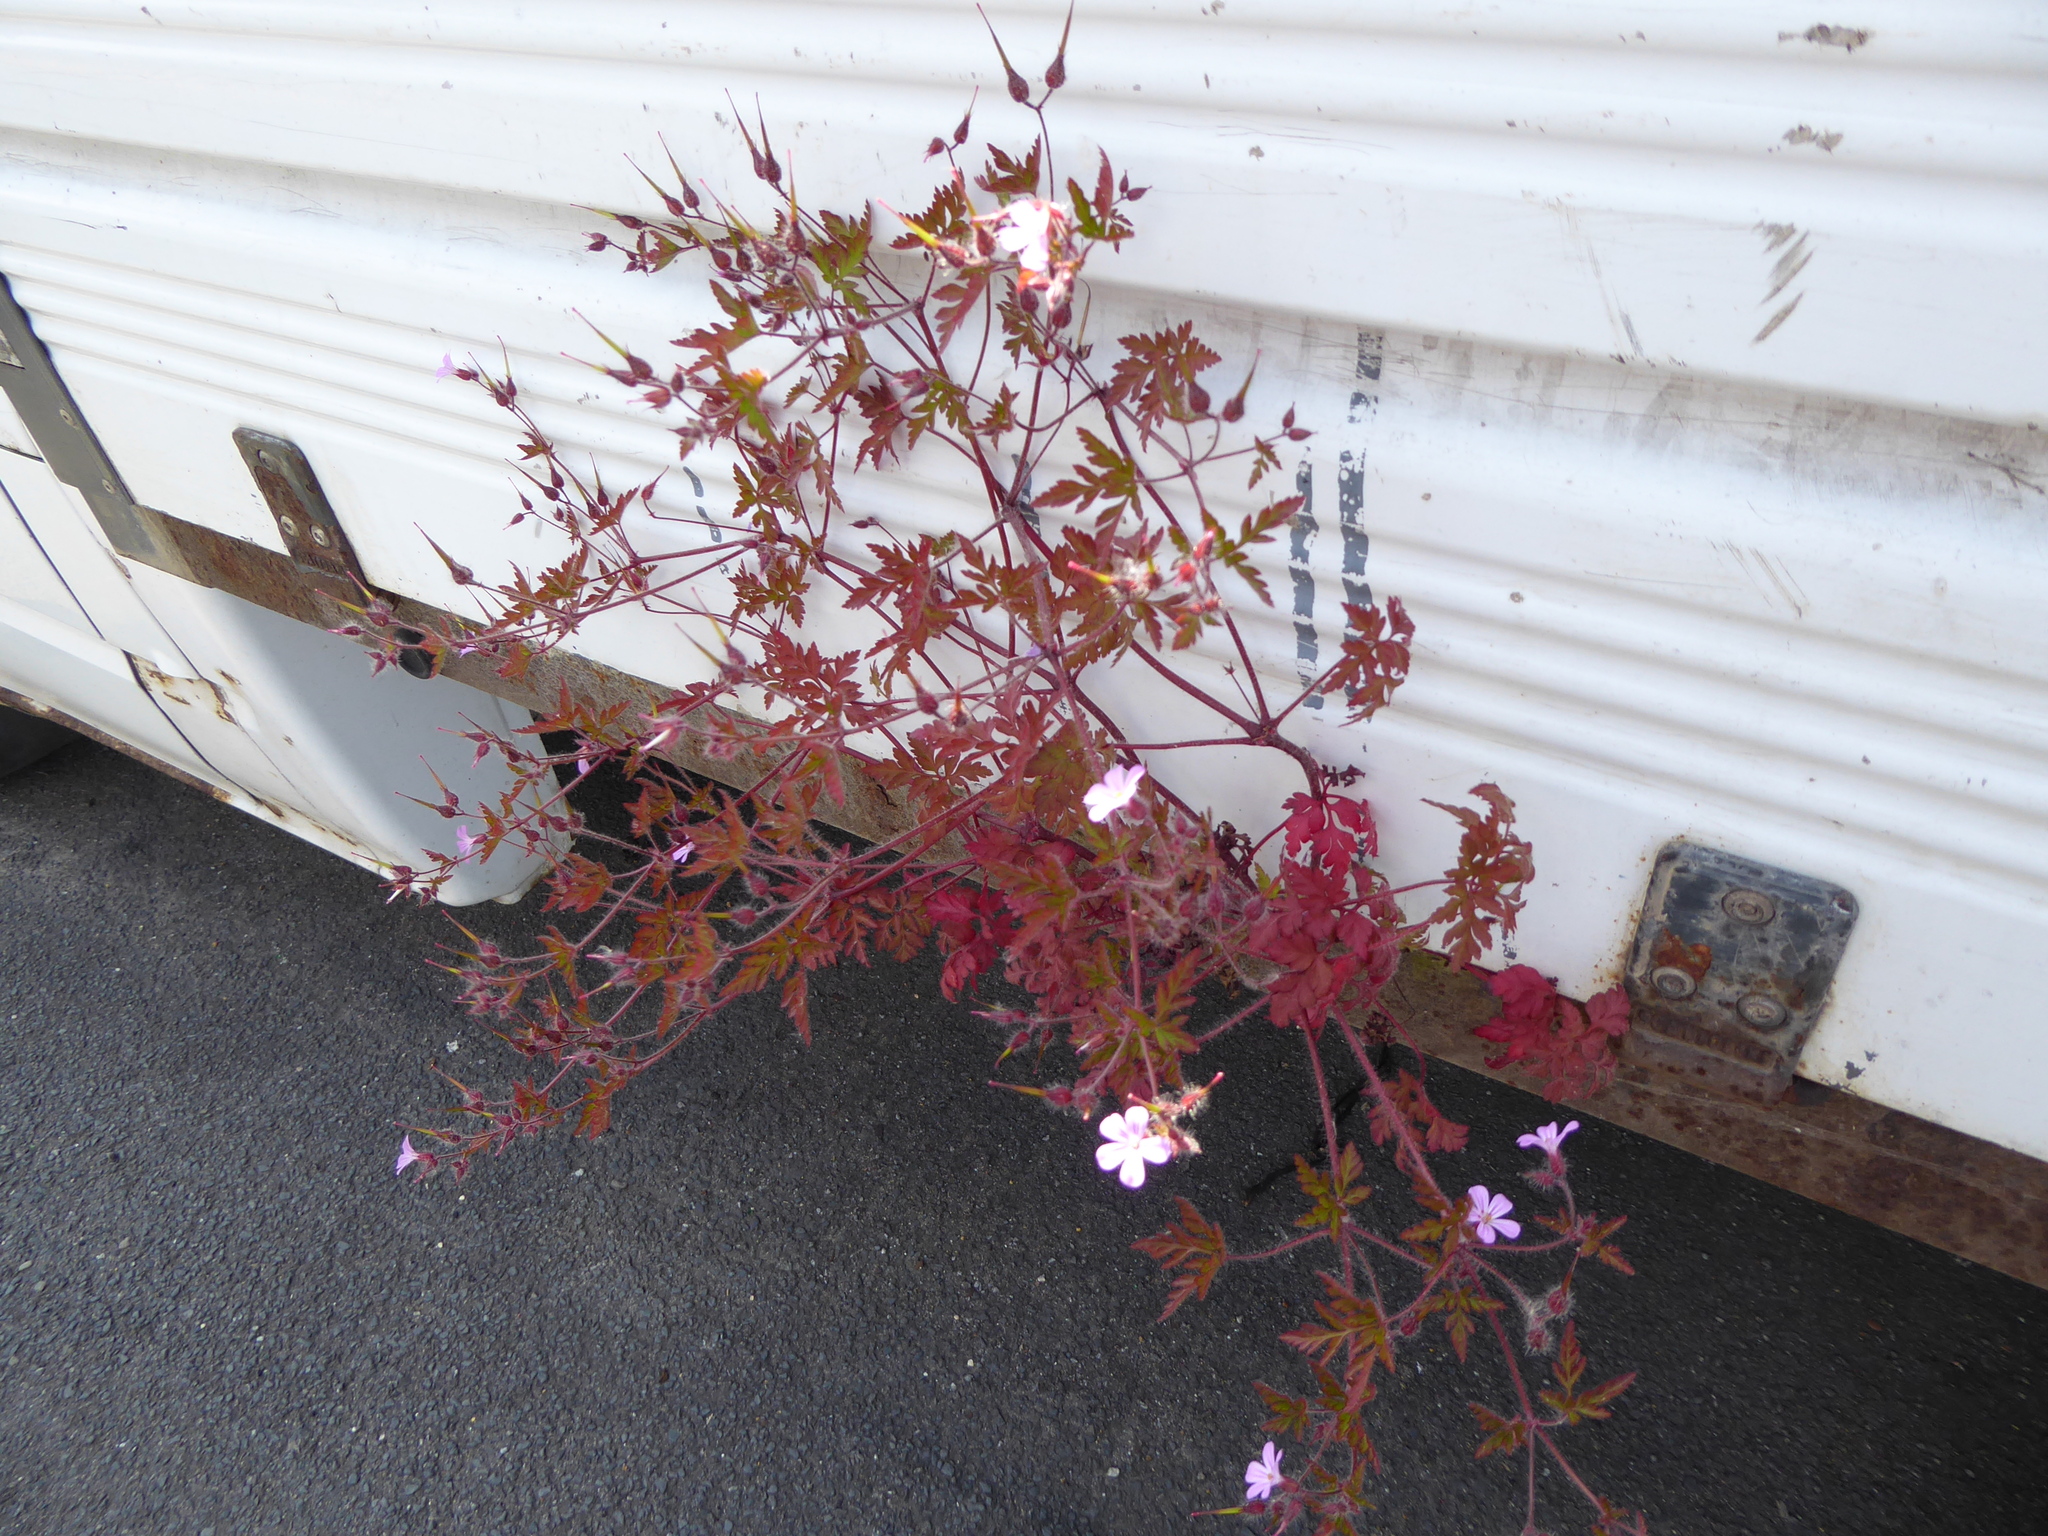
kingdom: Plantae
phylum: Tracheophyta
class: Magnoliopsida
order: Geraniales
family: Geraniaceae
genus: Geranium
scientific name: Geranium robertianum
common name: Herb-robert
